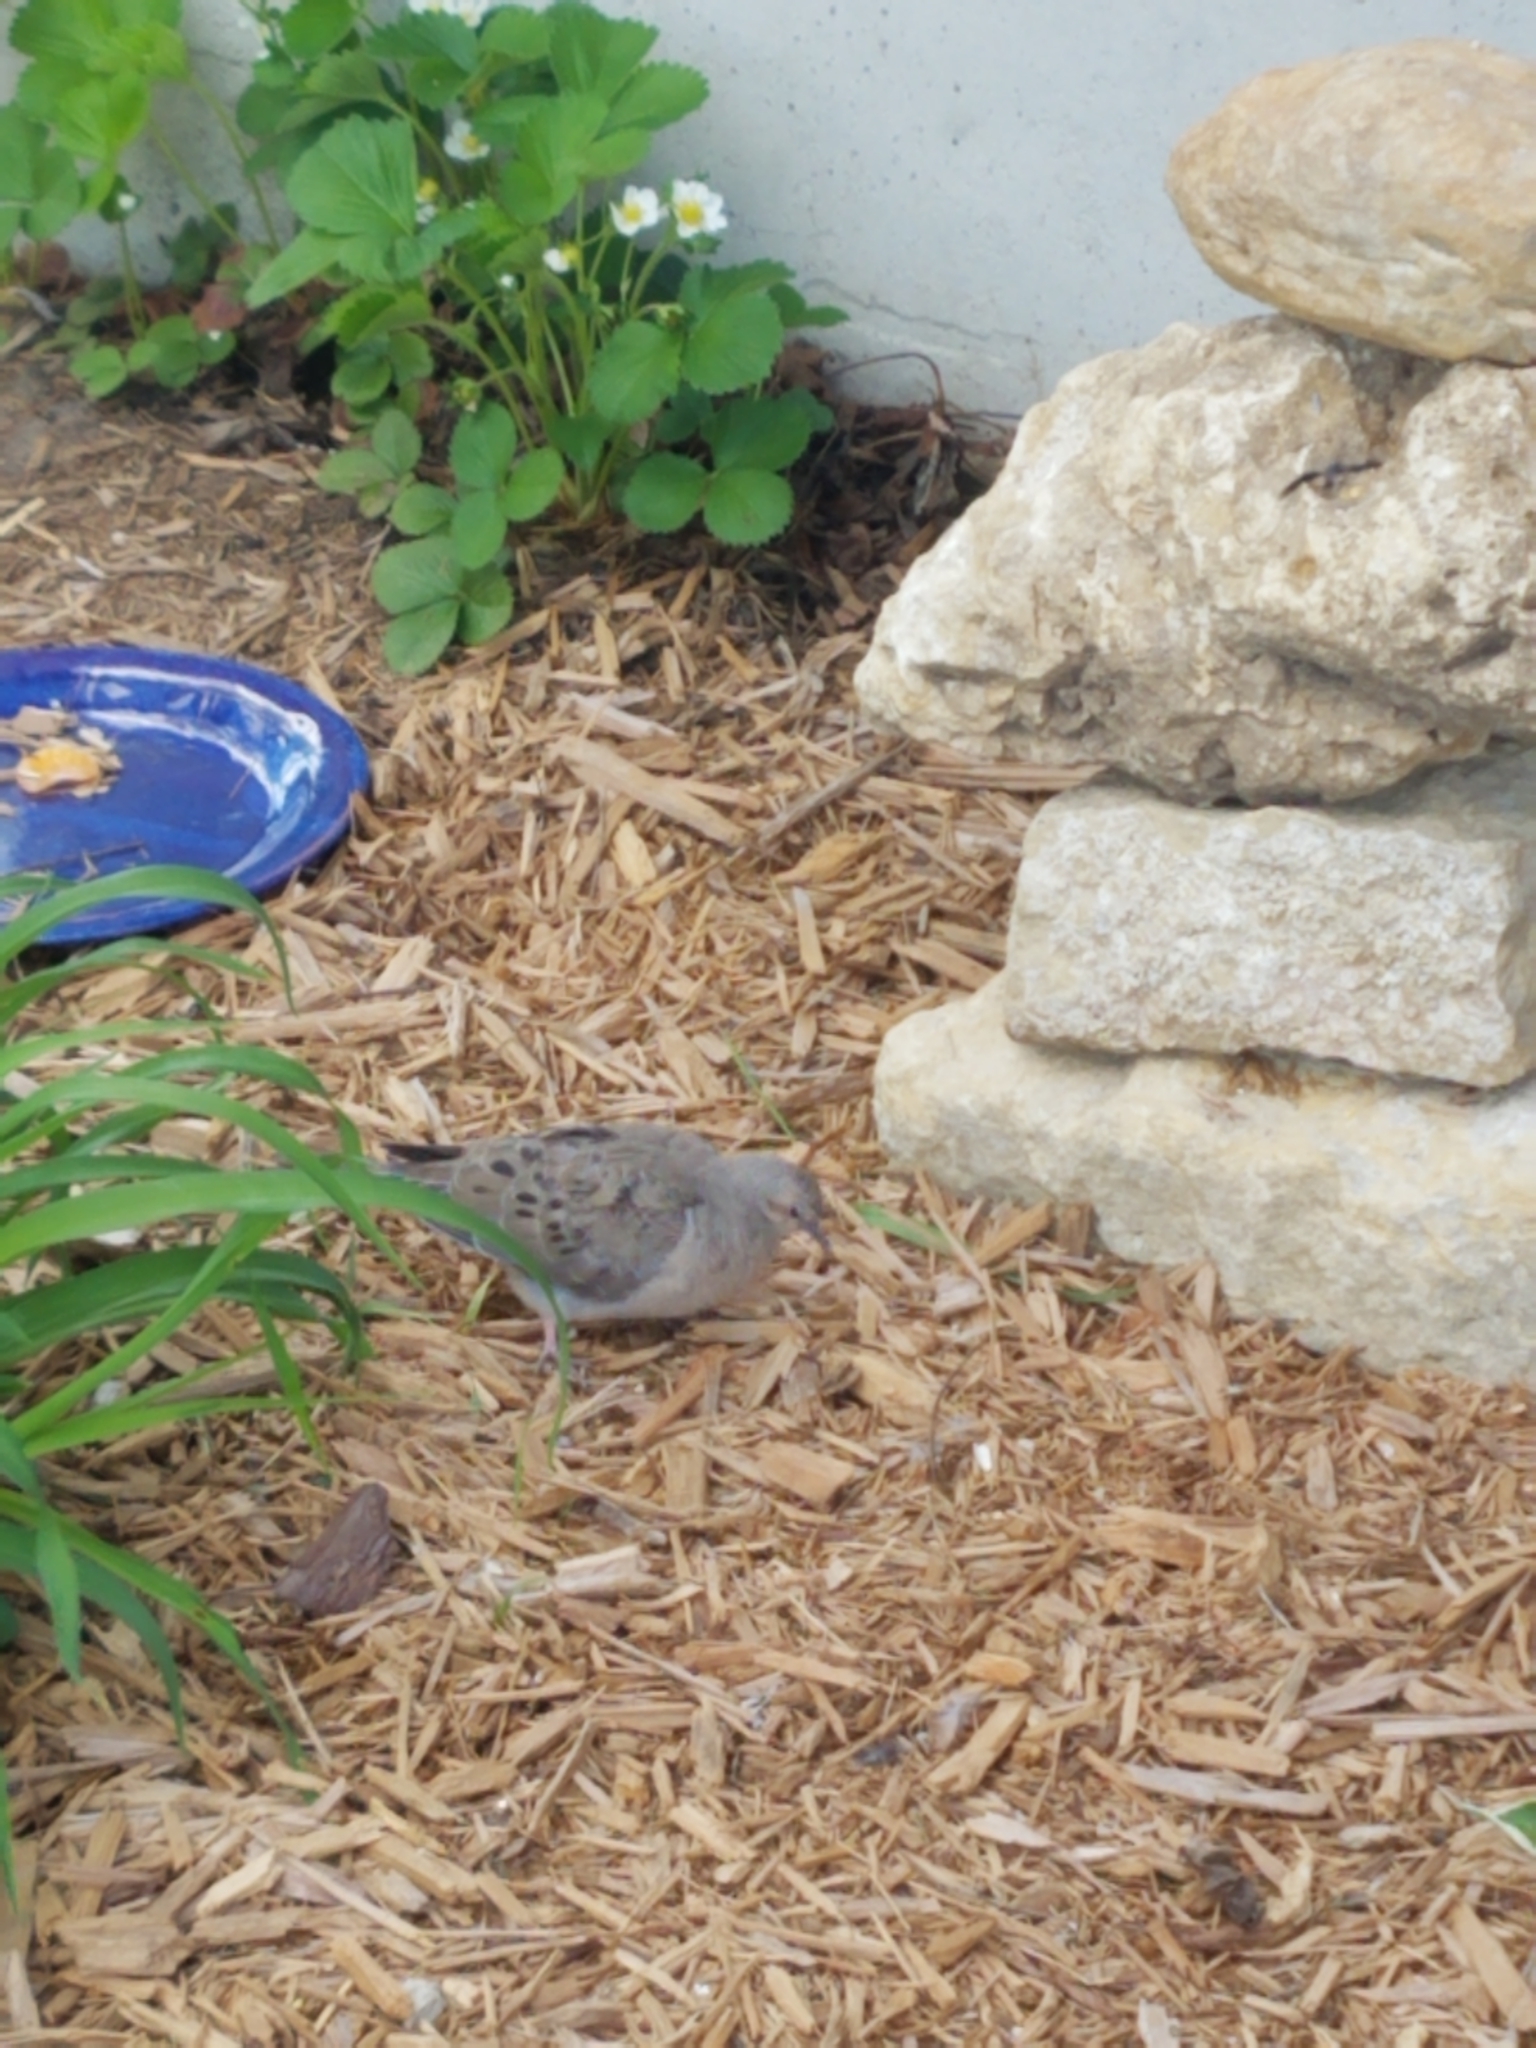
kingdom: Animalia
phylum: Chordata
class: Aves
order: Columbiformes
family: Columbidae
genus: Zenaida
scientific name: Zenaida macroura
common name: Mourning dove
